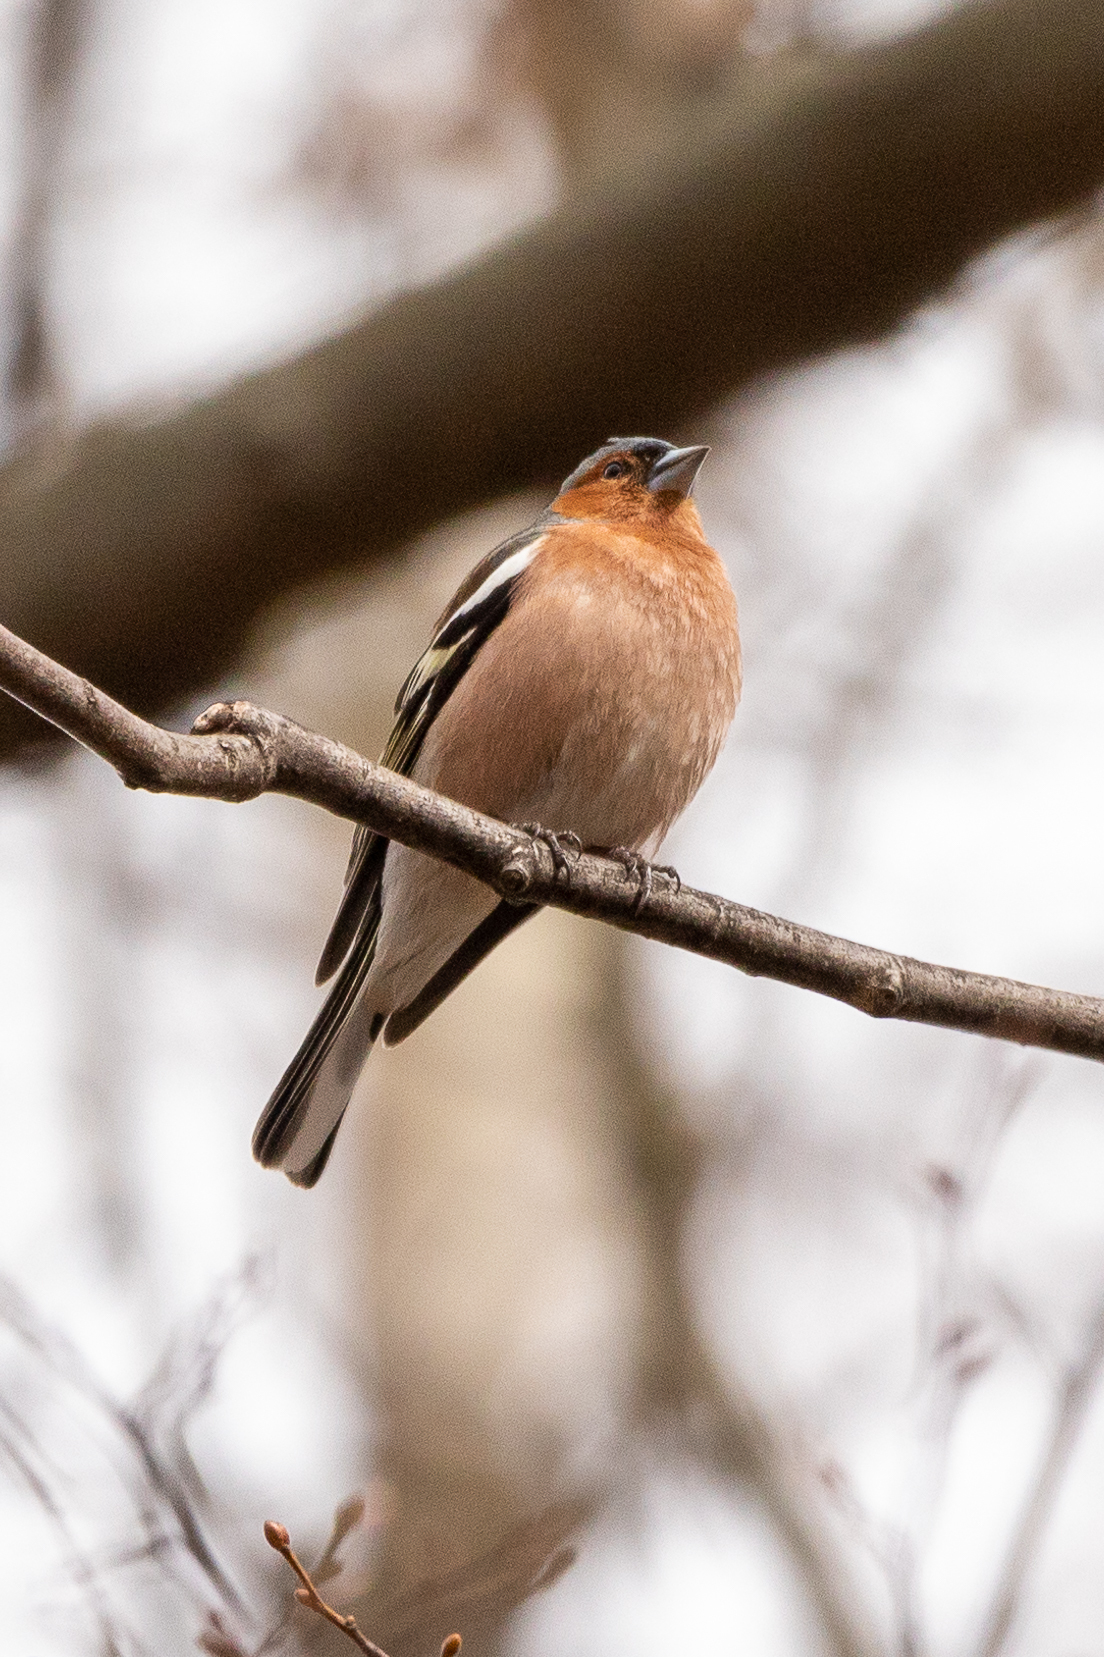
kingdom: Animalia
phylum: Chordata
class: Aves
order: Passeriformes
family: Fringillidae
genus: Fringilla
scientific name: Fringilla coelebs
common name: Common chaffinch
